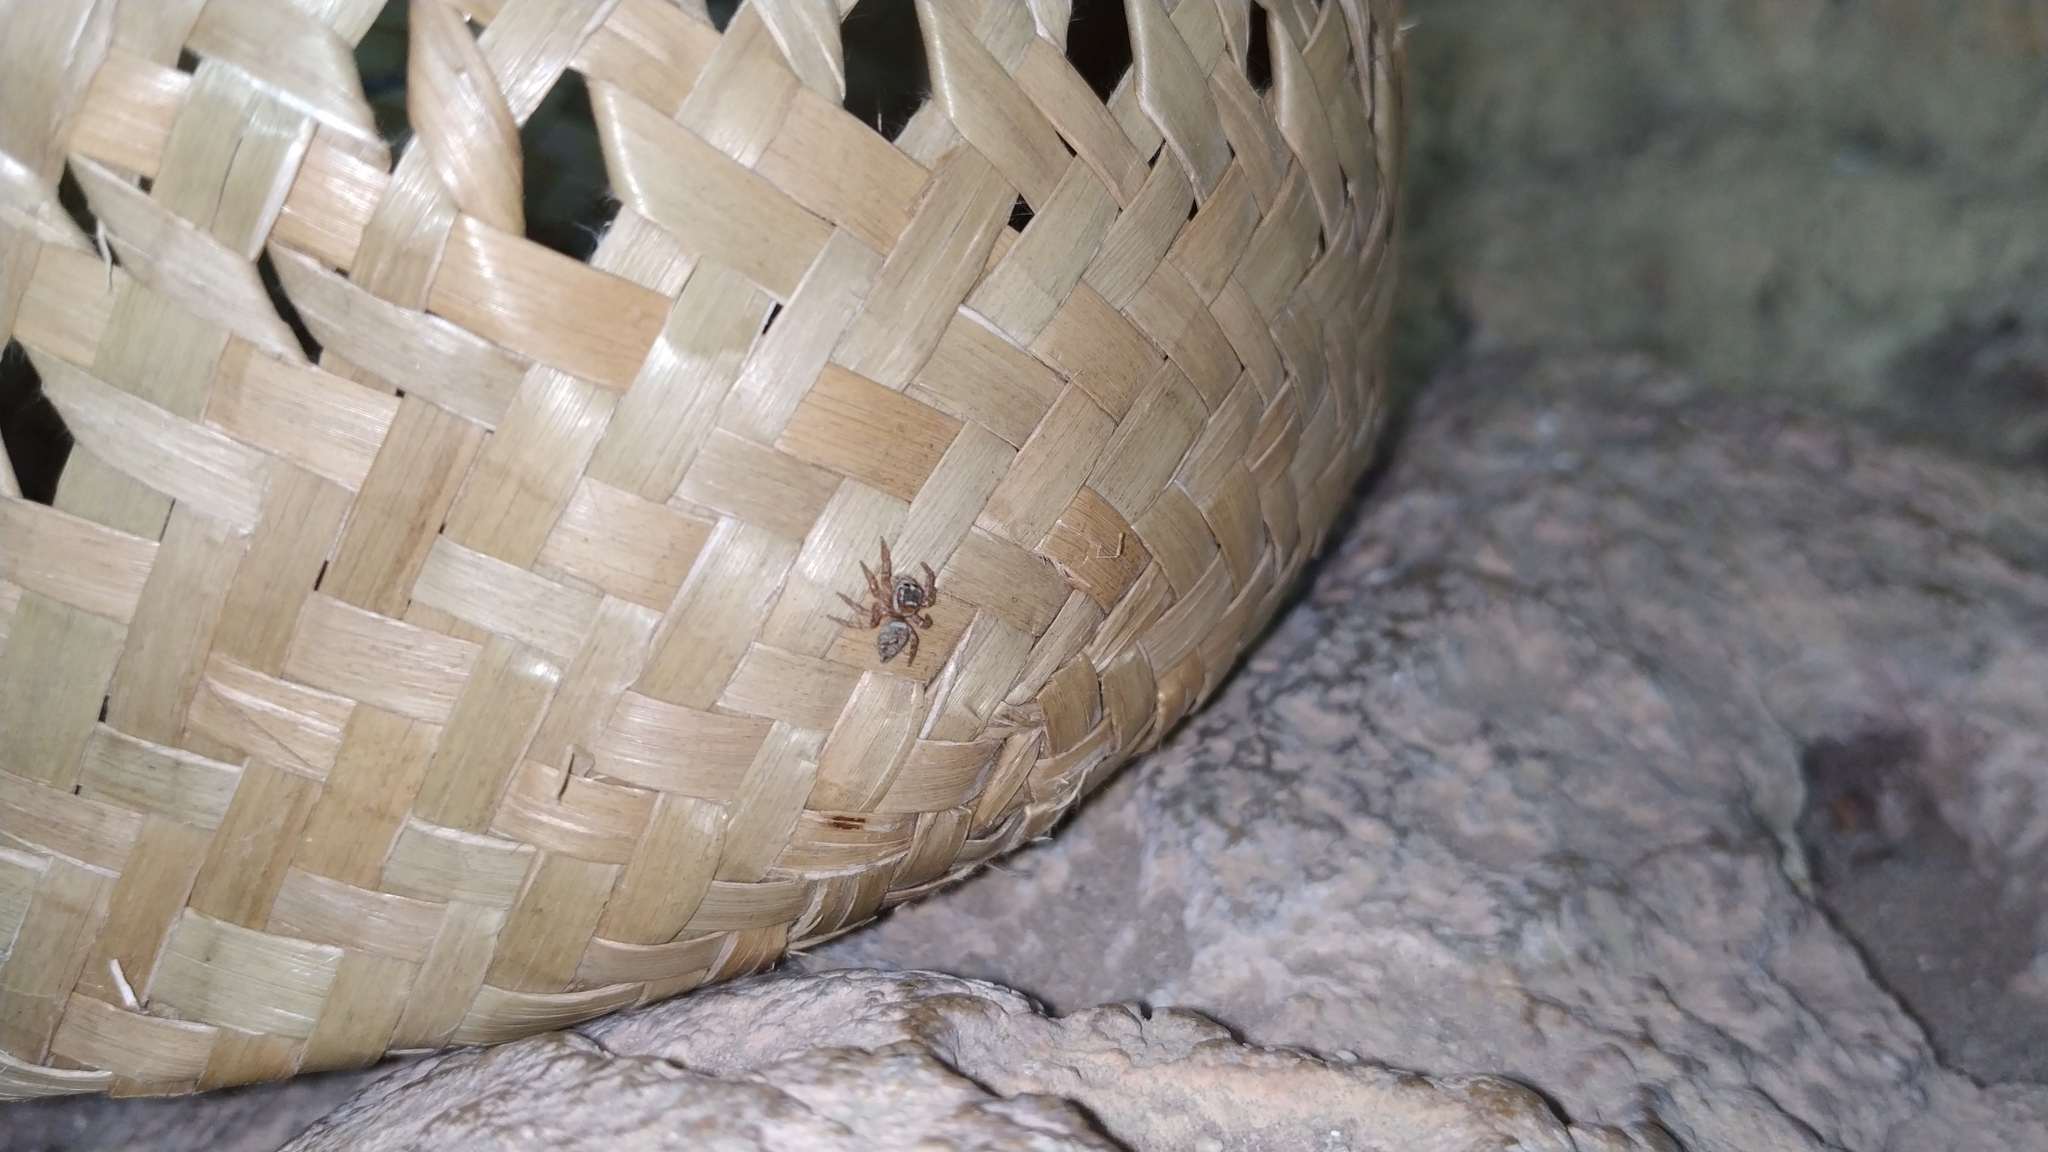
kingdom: Animalia
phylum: Arthropoda
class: Arachnida
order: Araneae
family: Salticidae
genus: Evarcha
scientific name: Evarcha jucunda
